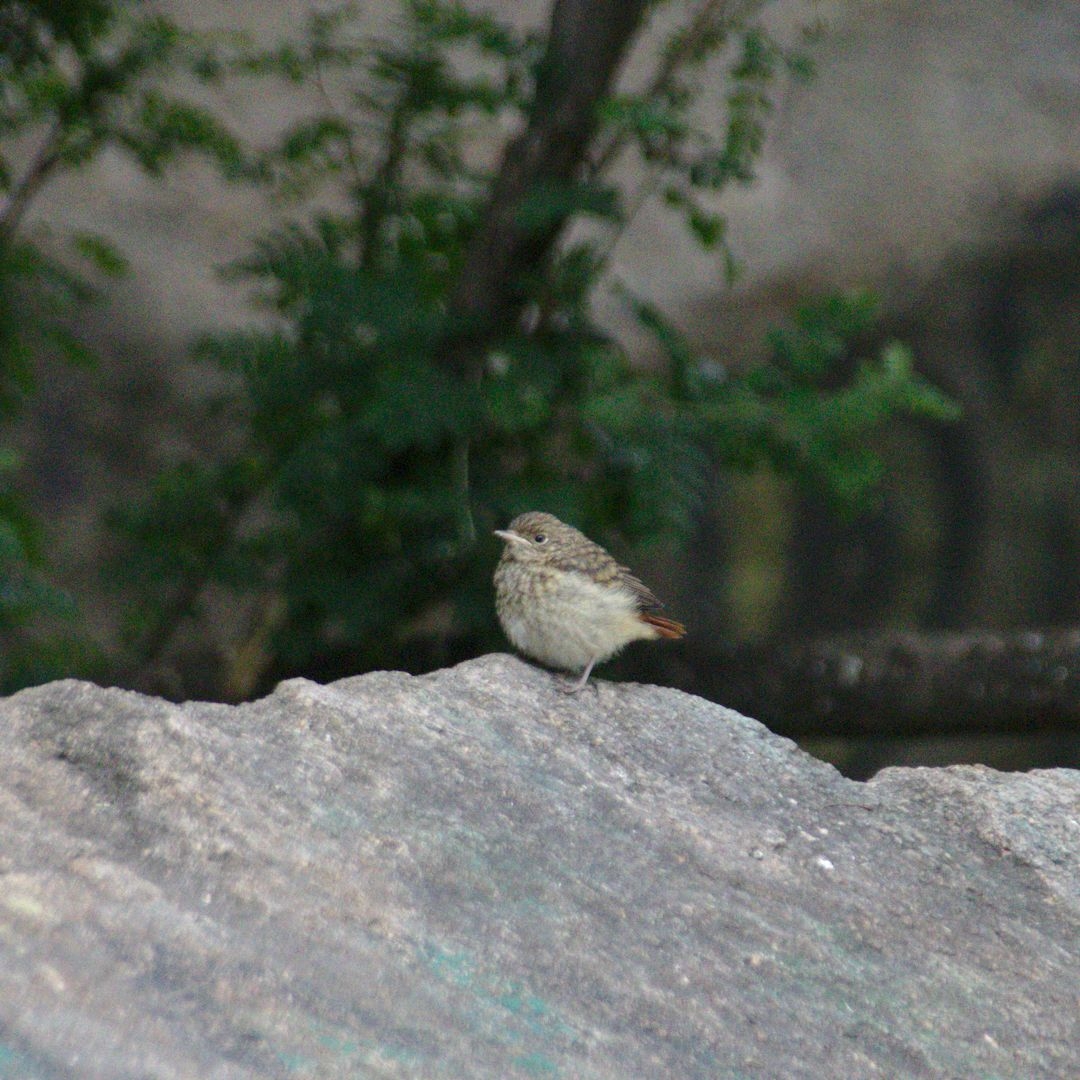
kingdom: Animalia
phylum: Chordata
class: Aves
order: Passeriformes
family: Muscicapidae
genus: Phoenicurus
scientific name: Phoenicurus phoenicurus
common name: Common redstart
